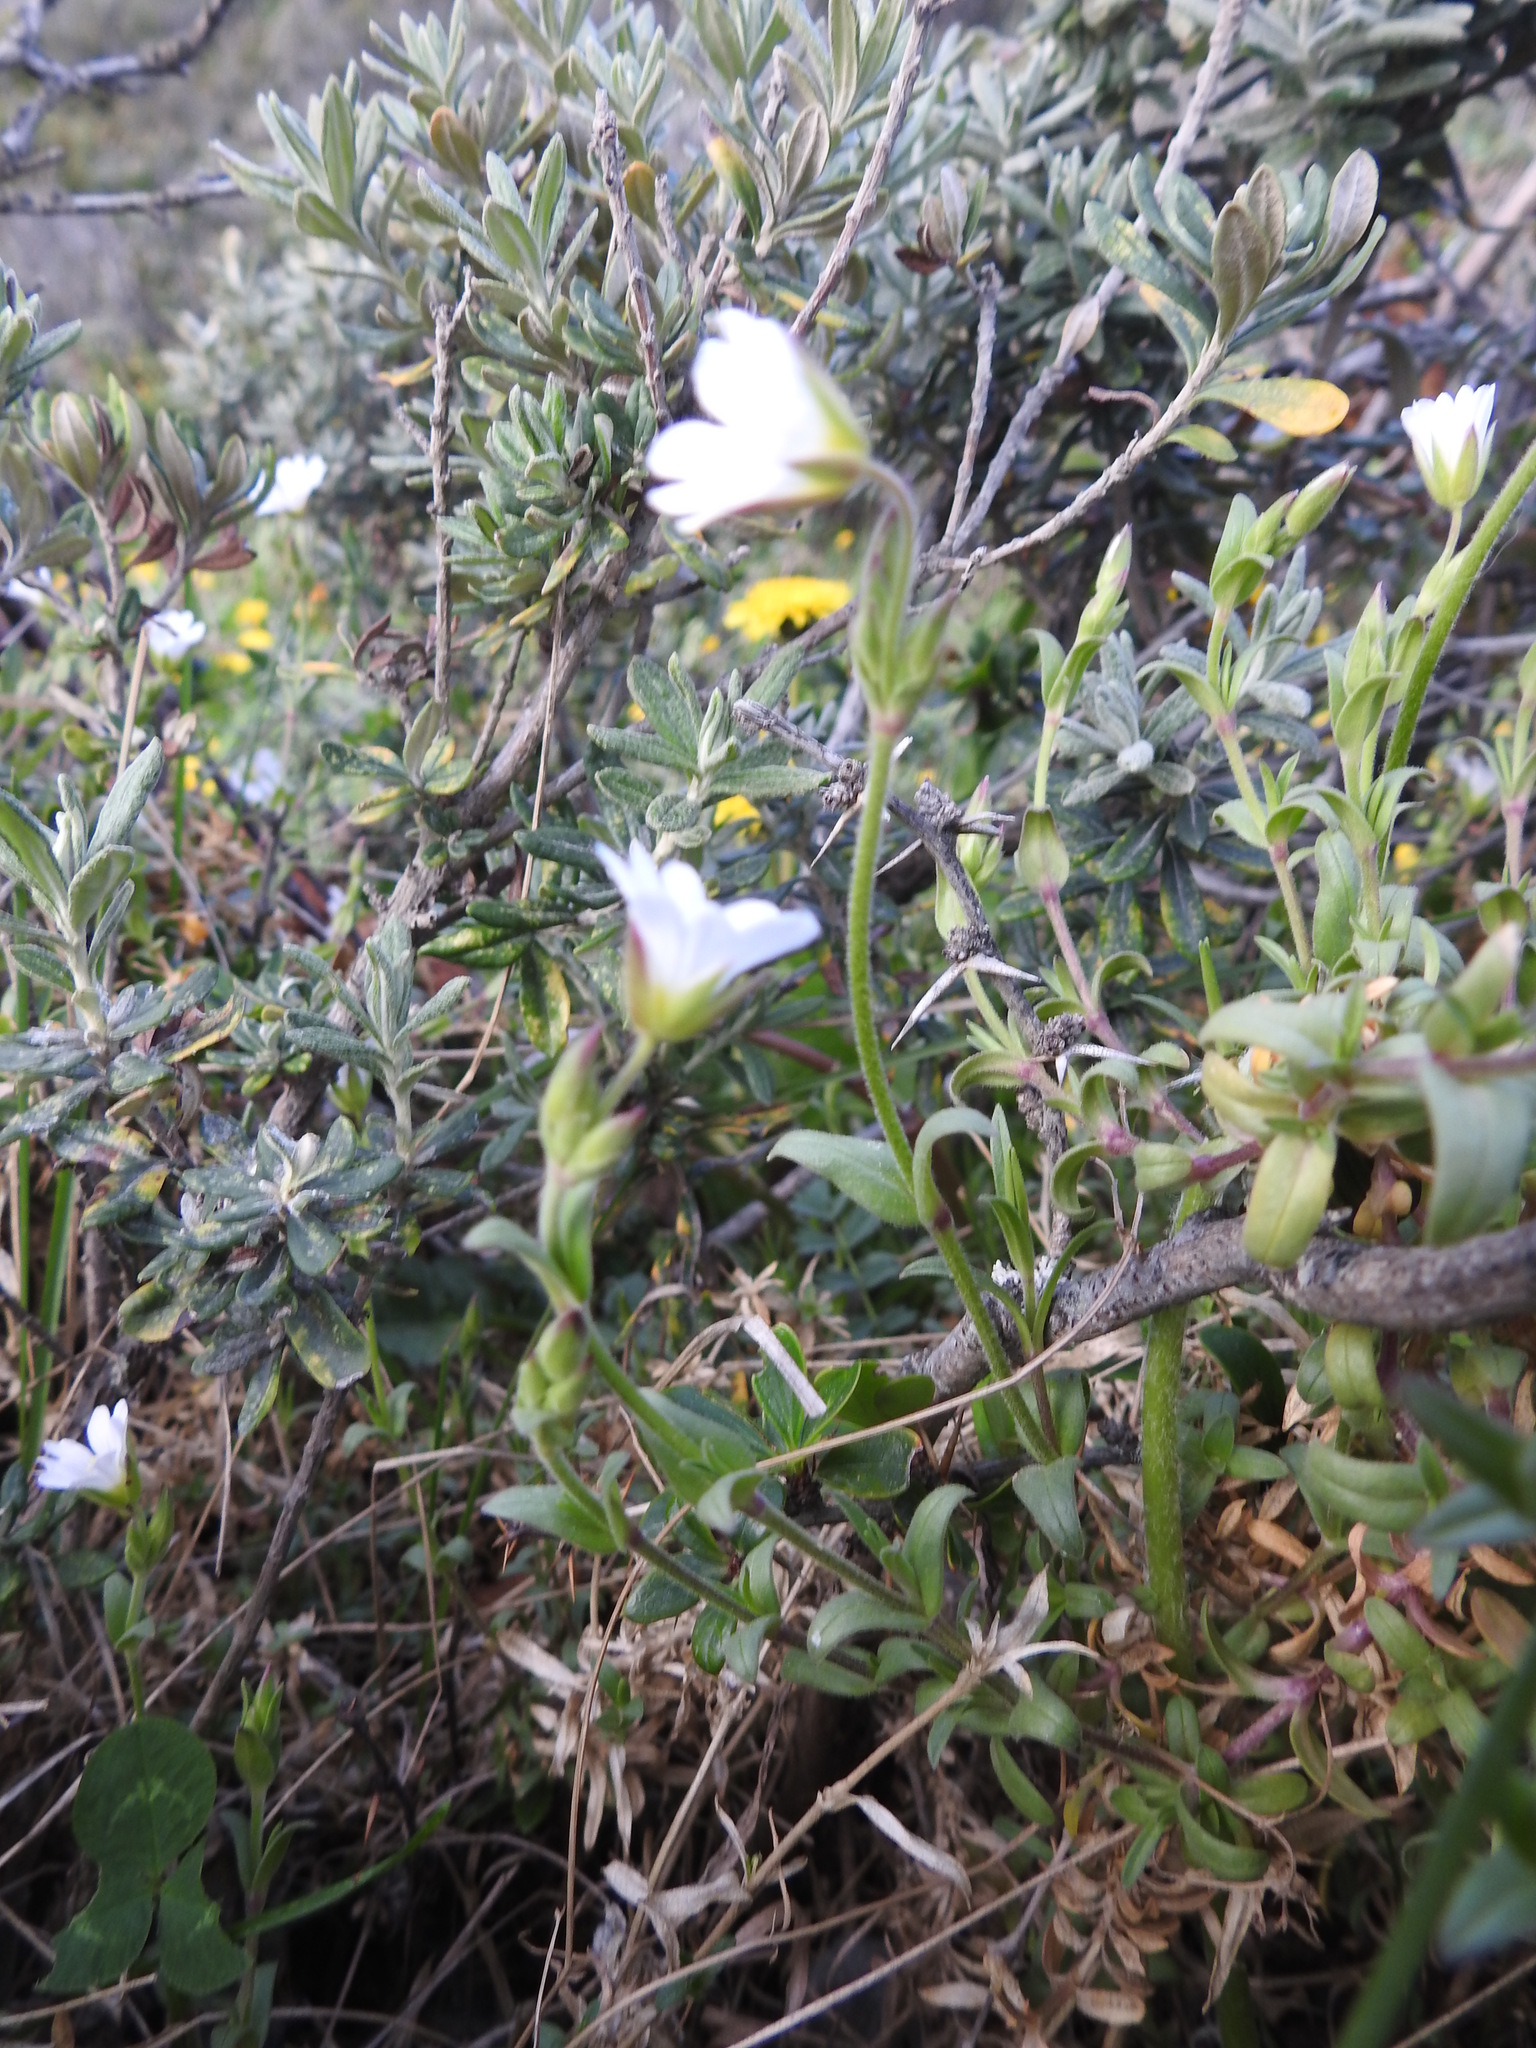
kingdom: Plantae
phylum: Tracheophyta
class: Magnoliopsida
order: Caryophyllales
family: Caryophyllaceae
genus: Cerastium
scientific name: Cerastium arvense
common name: Field mouse-ear
